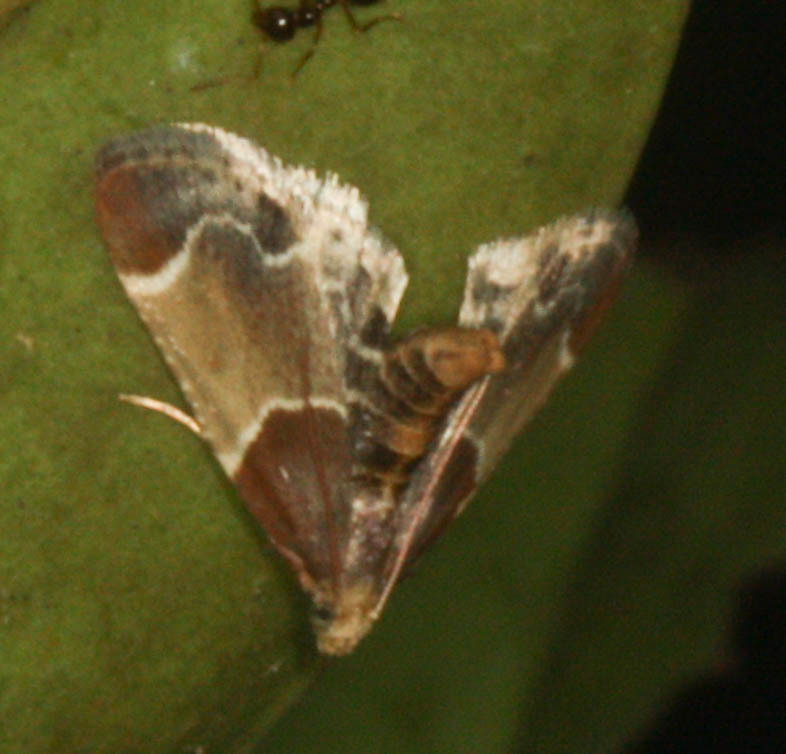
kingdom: Animalia
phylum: Arthropoda
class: Insecta
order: Lepidoptera
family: Pyralidae
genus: Pyralis
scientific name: Pyralis farinalis
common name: Meal moth
